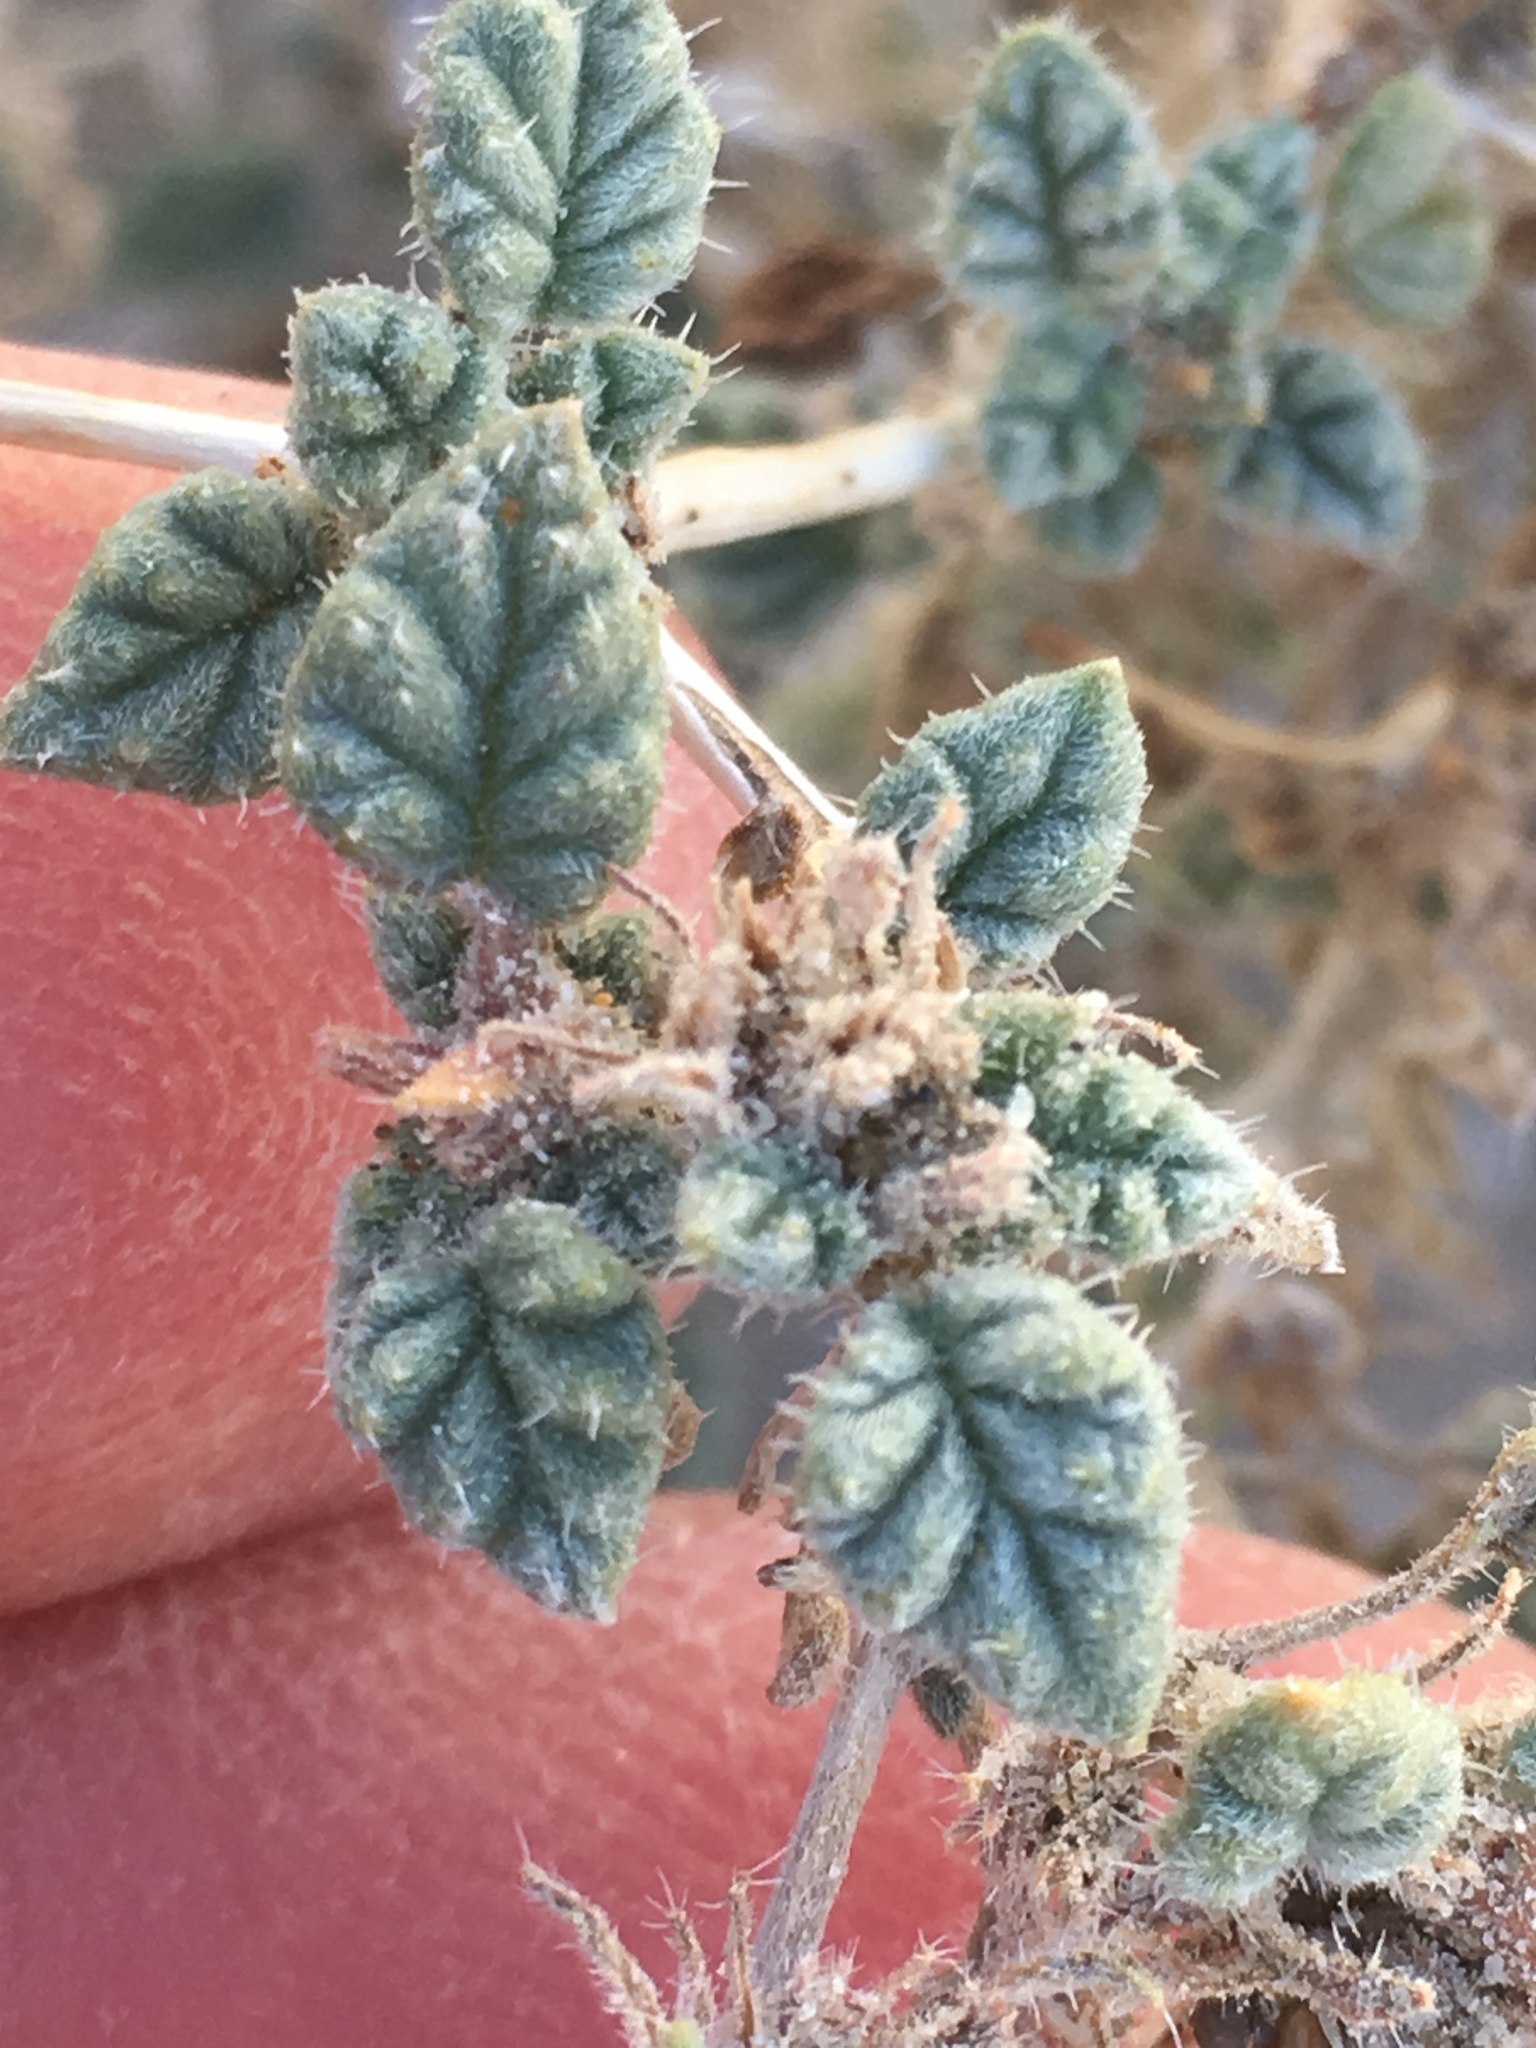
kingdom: Plantae
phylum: Tracheophyta
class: Magnoliopsida
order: Boraginales
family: Ehretiaceae
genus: Tiquilia
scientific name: Tiquilia palmeri
